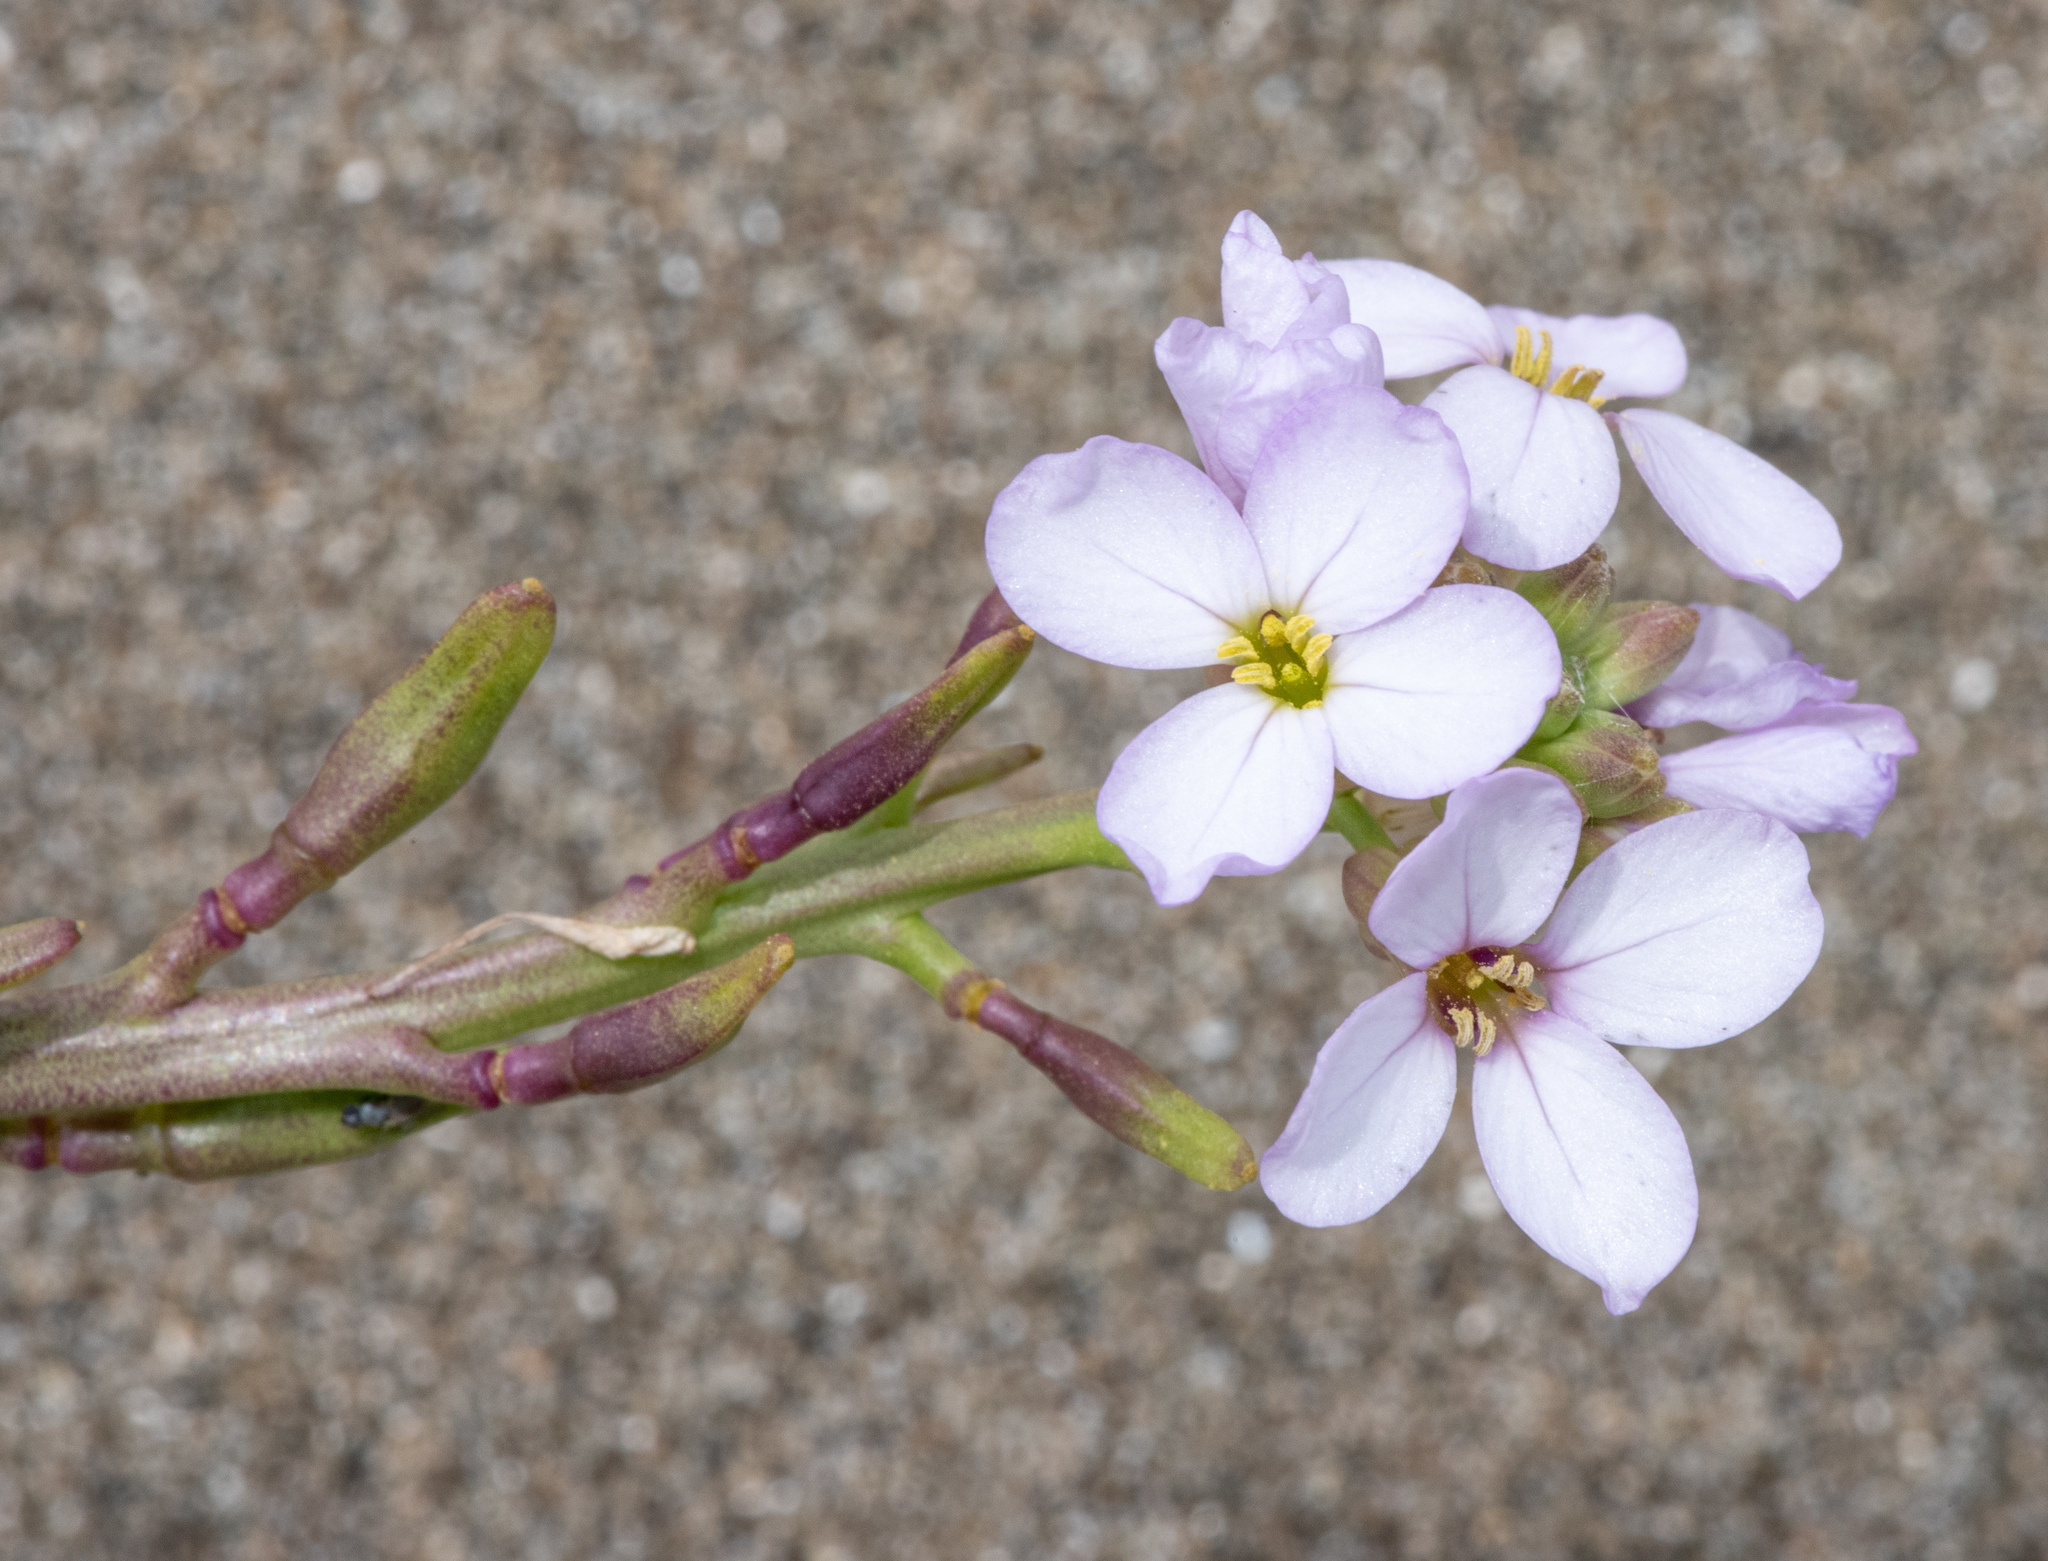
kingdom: Plantae
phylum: Tracheophyta
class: Magnoliopsida
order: Brassicales
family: Brassicaceae
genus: Cakile
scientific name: Cakile maritima
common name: Sea rocket
